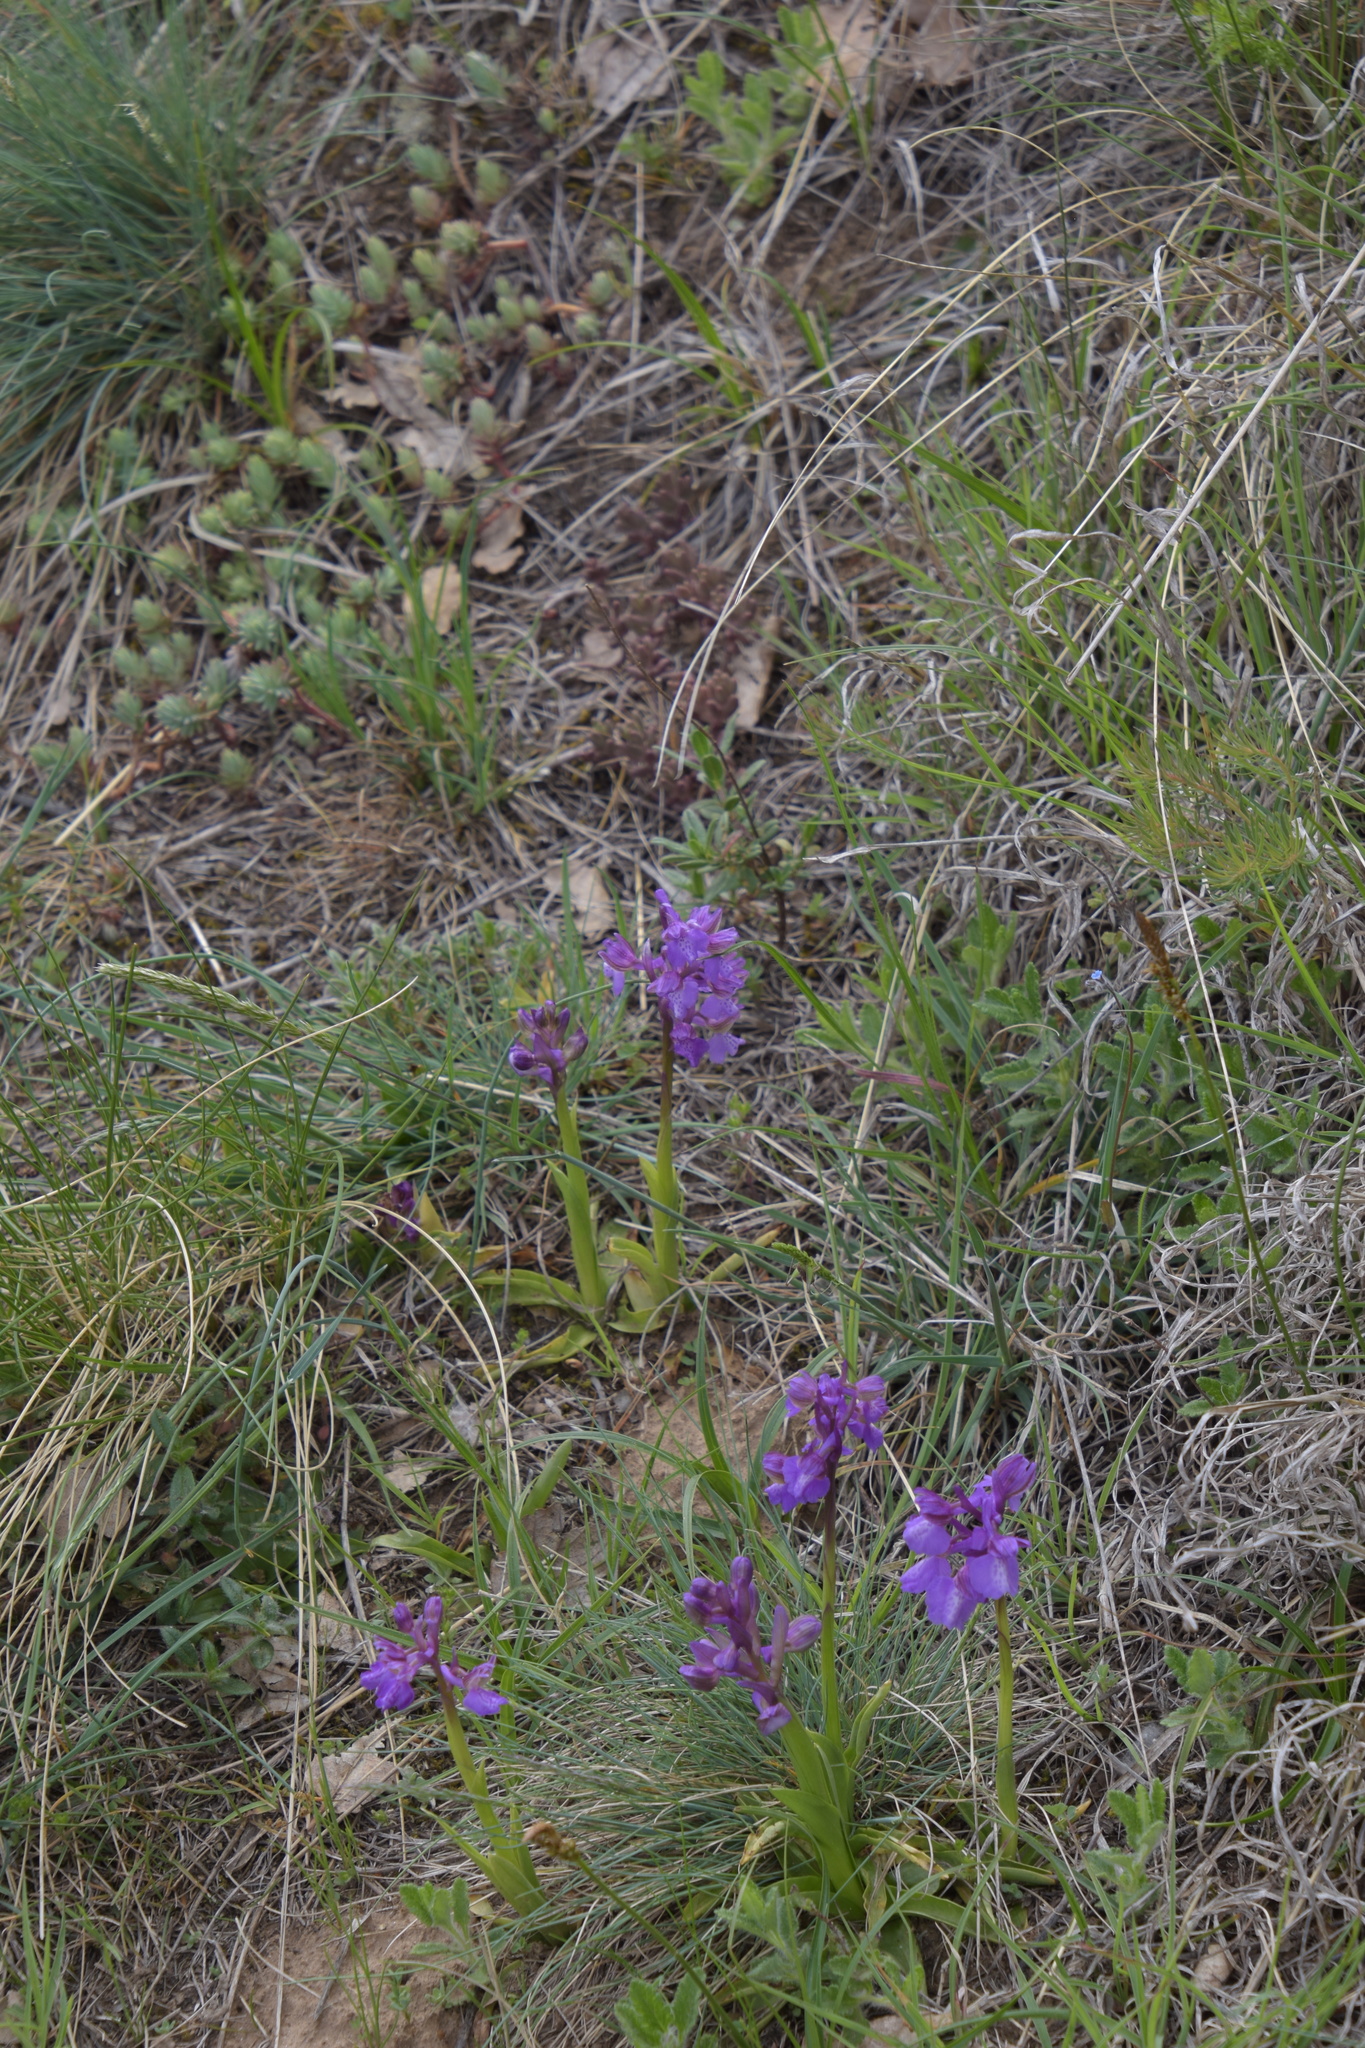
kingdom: Plantae
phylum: Tracheophyta
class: Liliopsida
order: Asparagales
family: Orchidaceae
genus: Anacamptis
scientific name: Anacamptis morio
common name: Green-winged orchid
